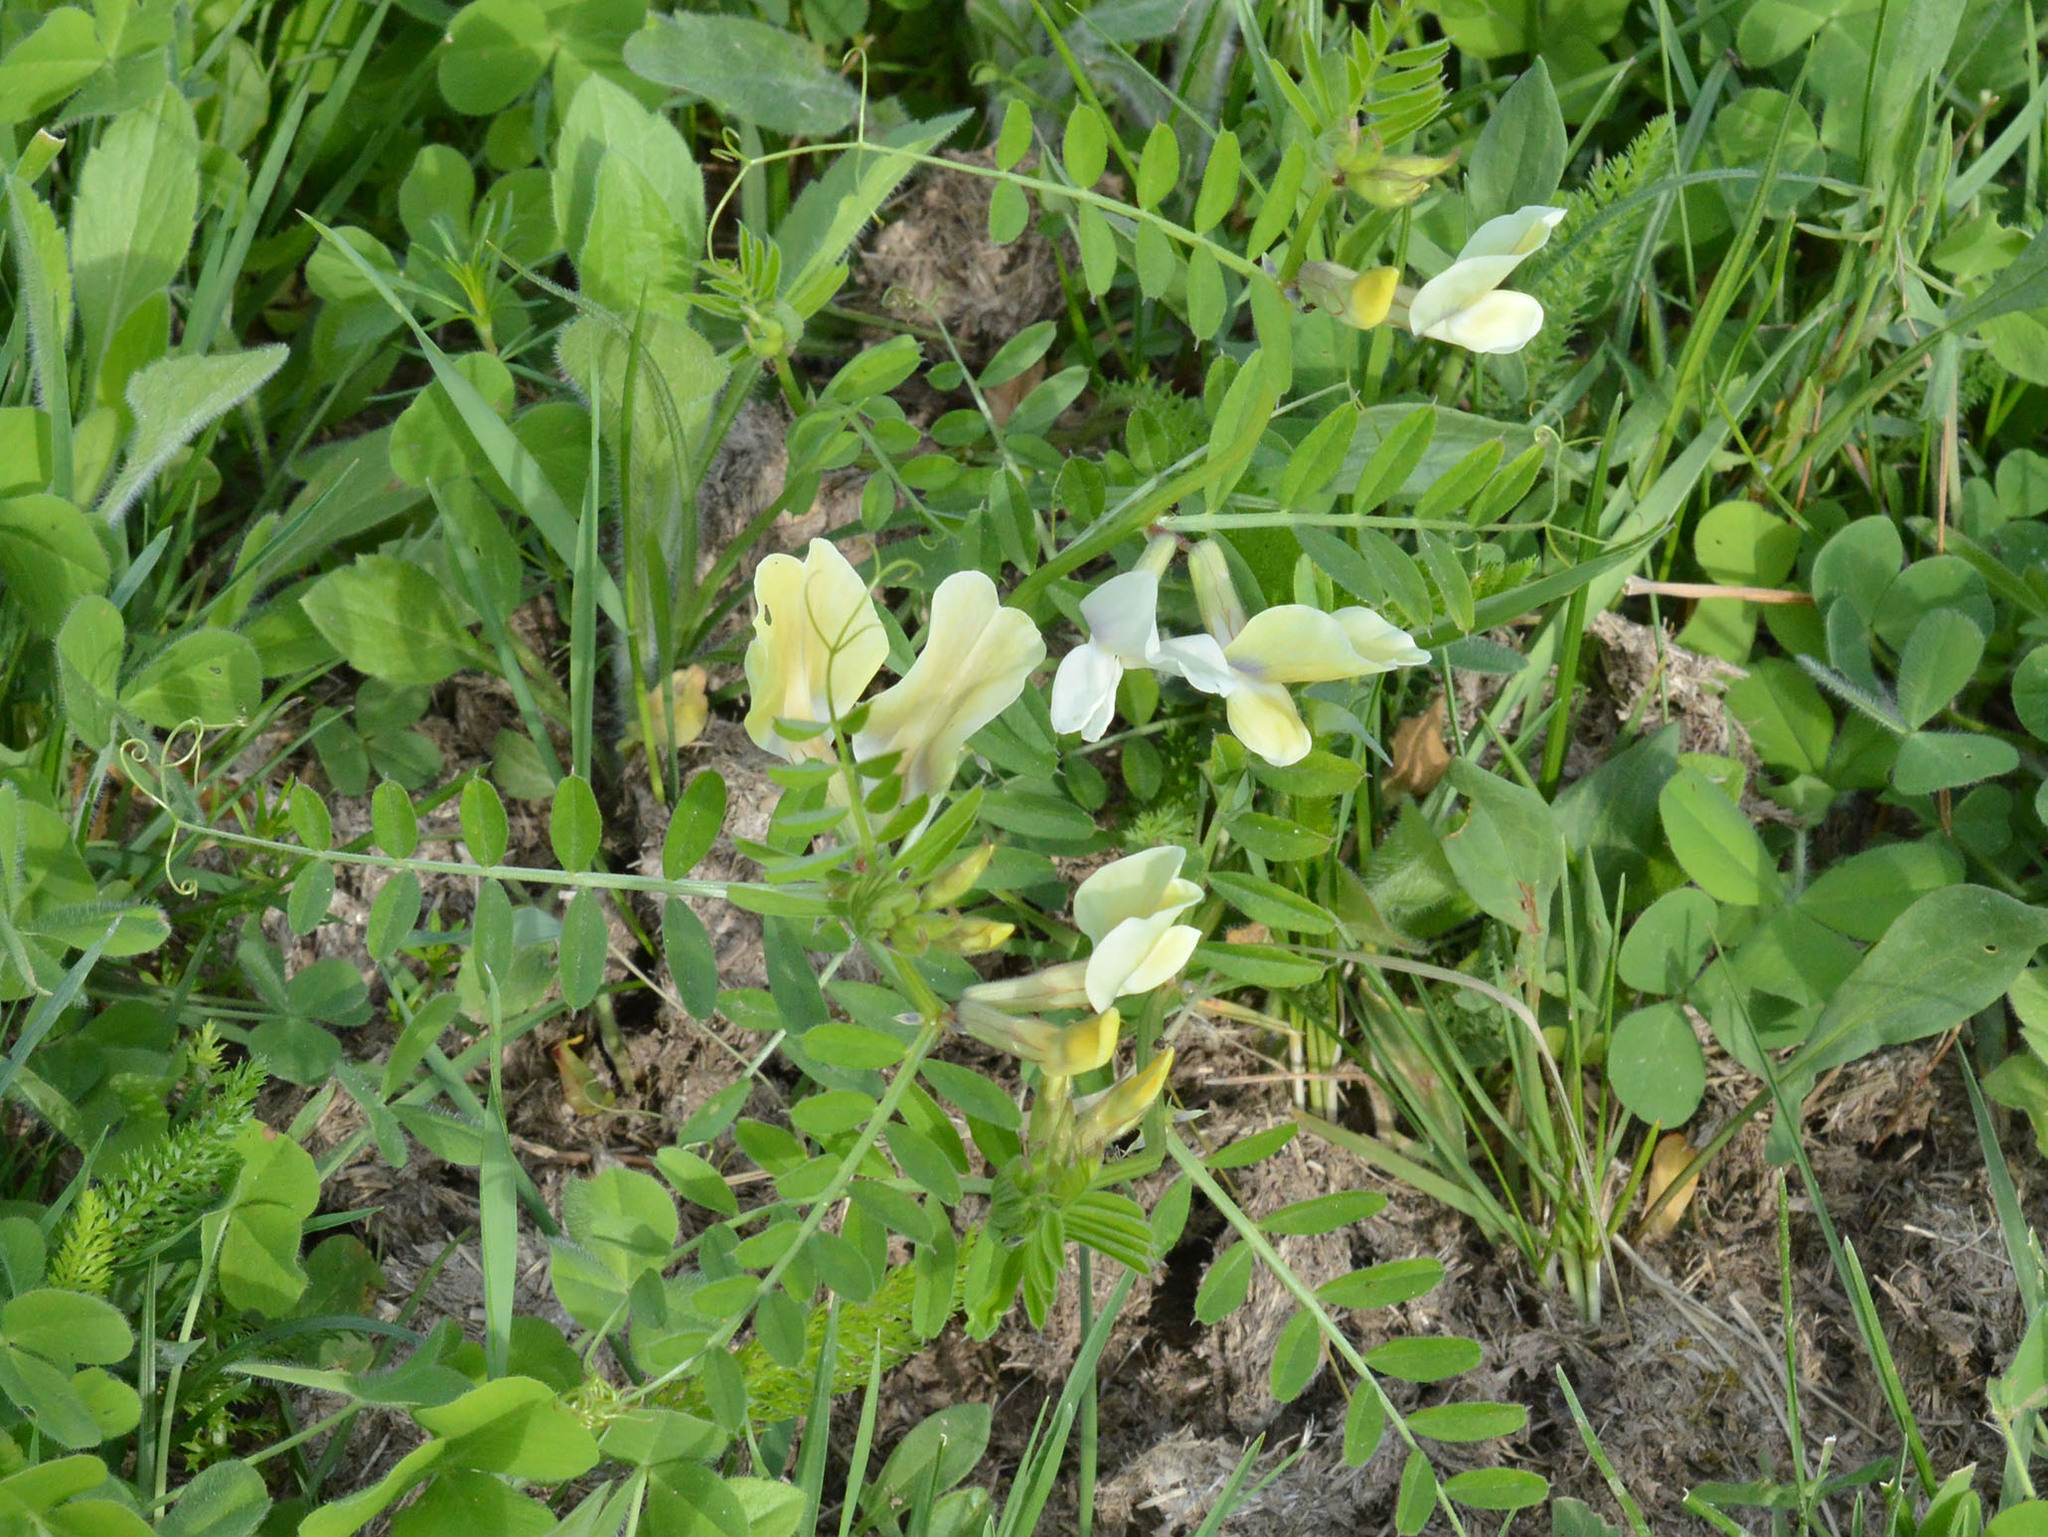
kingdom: Plantae
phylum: Tracheophyta
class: Magnoliopsida
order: Fabales
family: Fabaceae
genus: Vicia
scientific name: Vicia grandiflora
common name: Large yellow vetch
